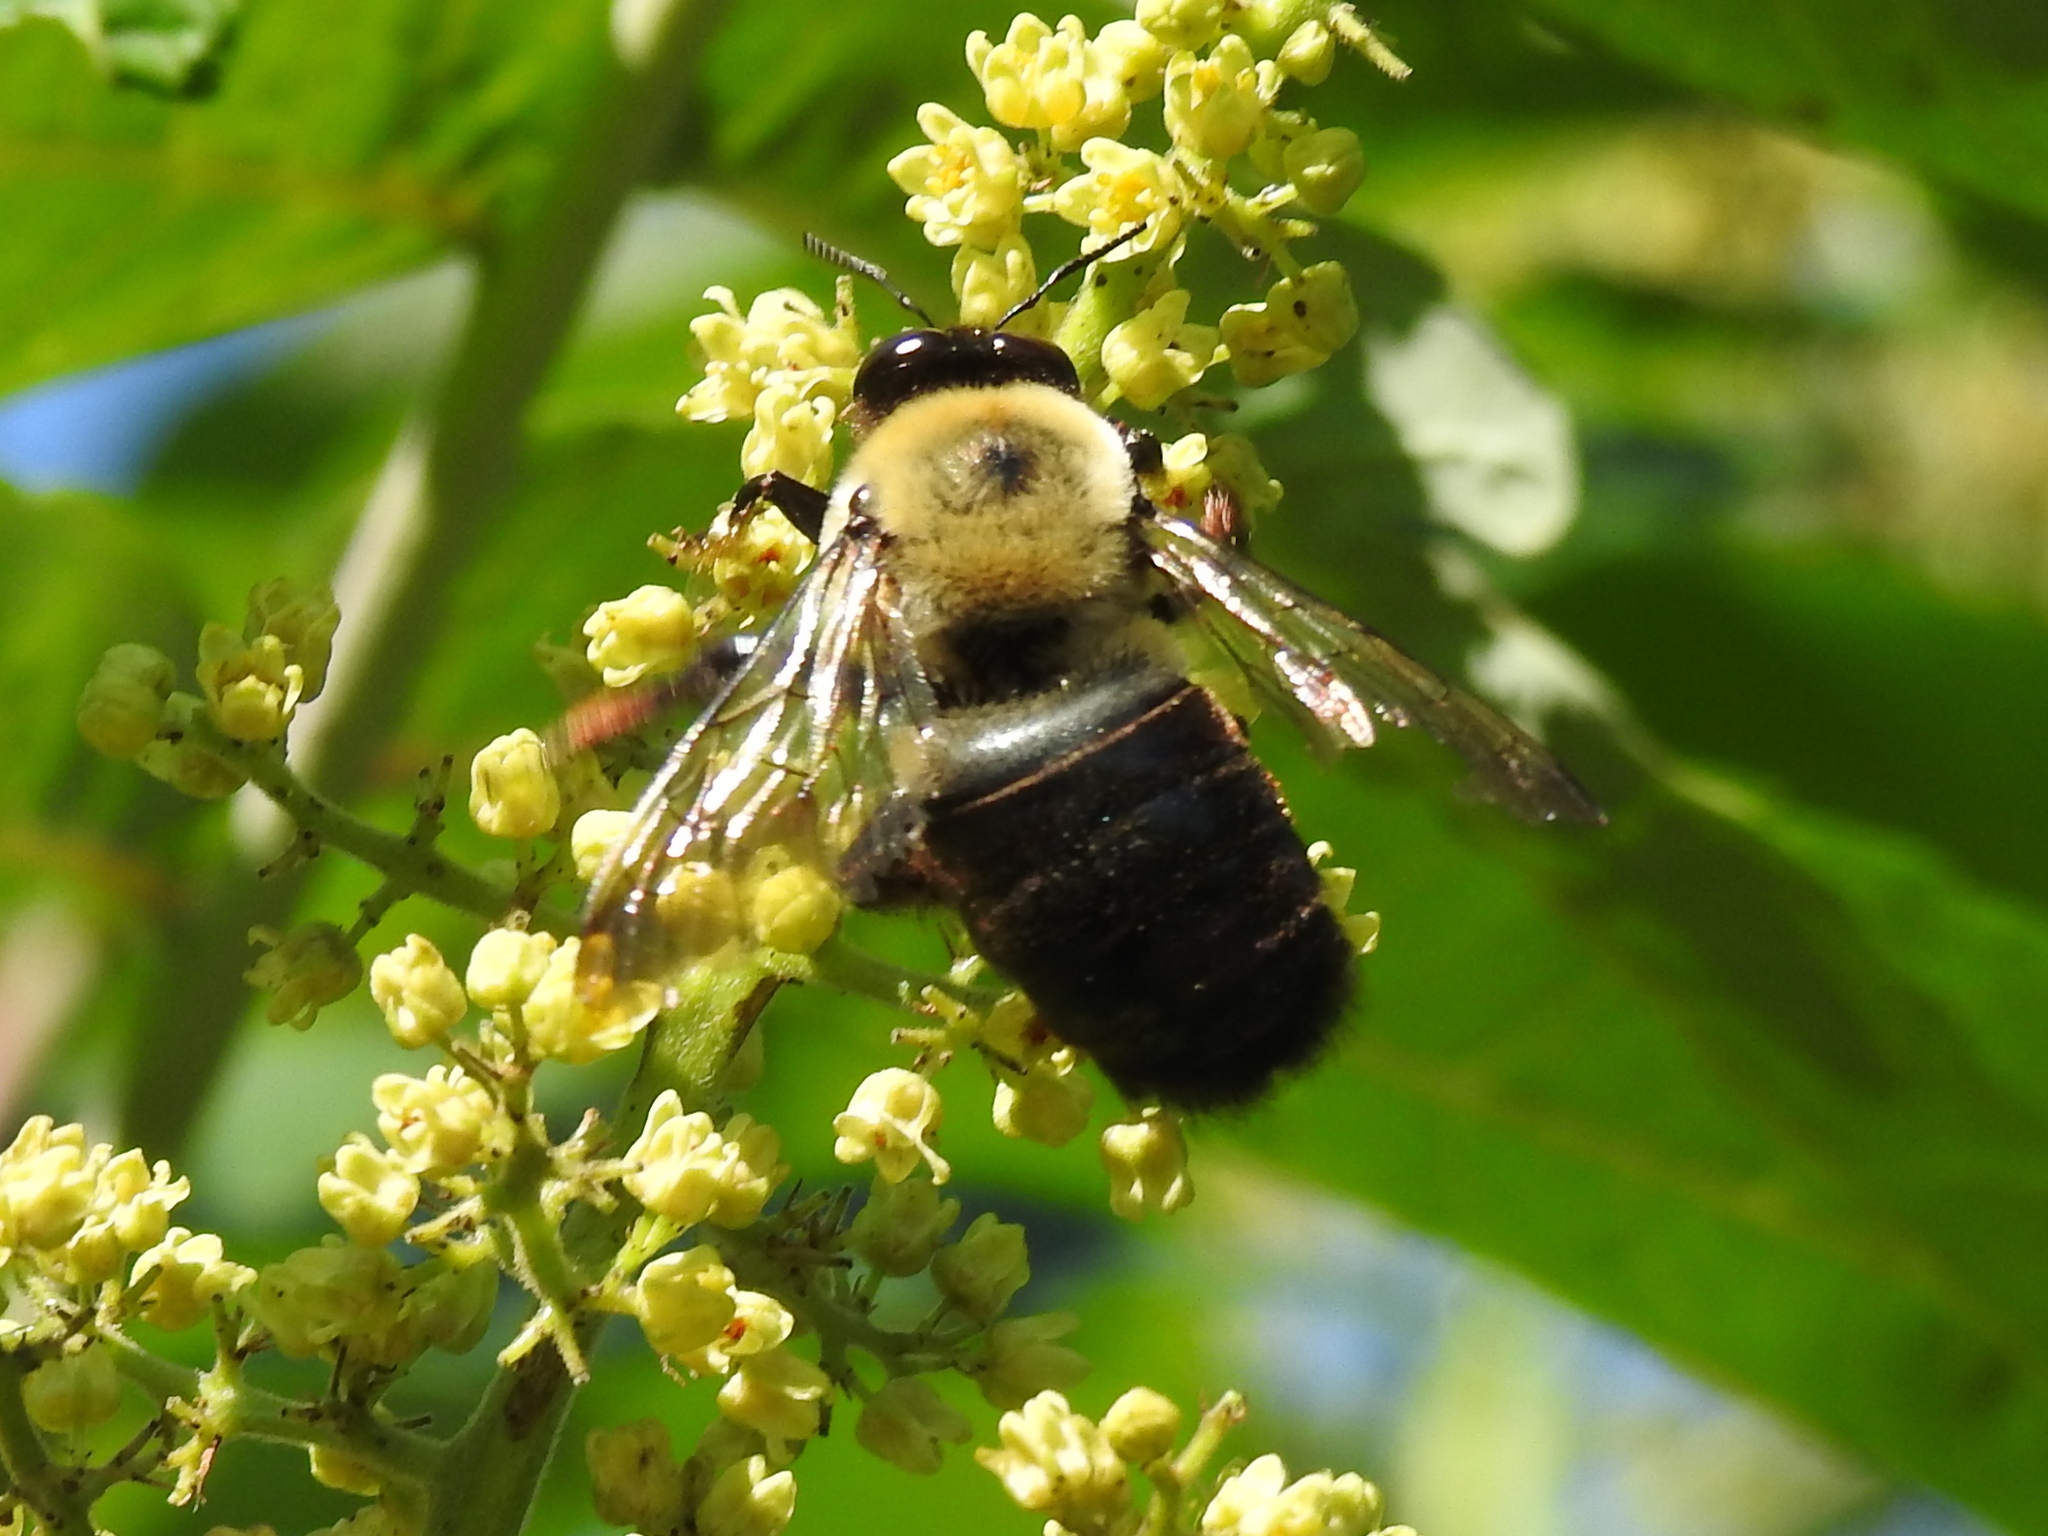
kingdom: Animalia
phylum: Arthropoda
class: Insecta
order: Hymenoptera
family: Apidae
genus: Xylocopa
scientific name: Xylocopa virginica
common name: Carpenter bee
